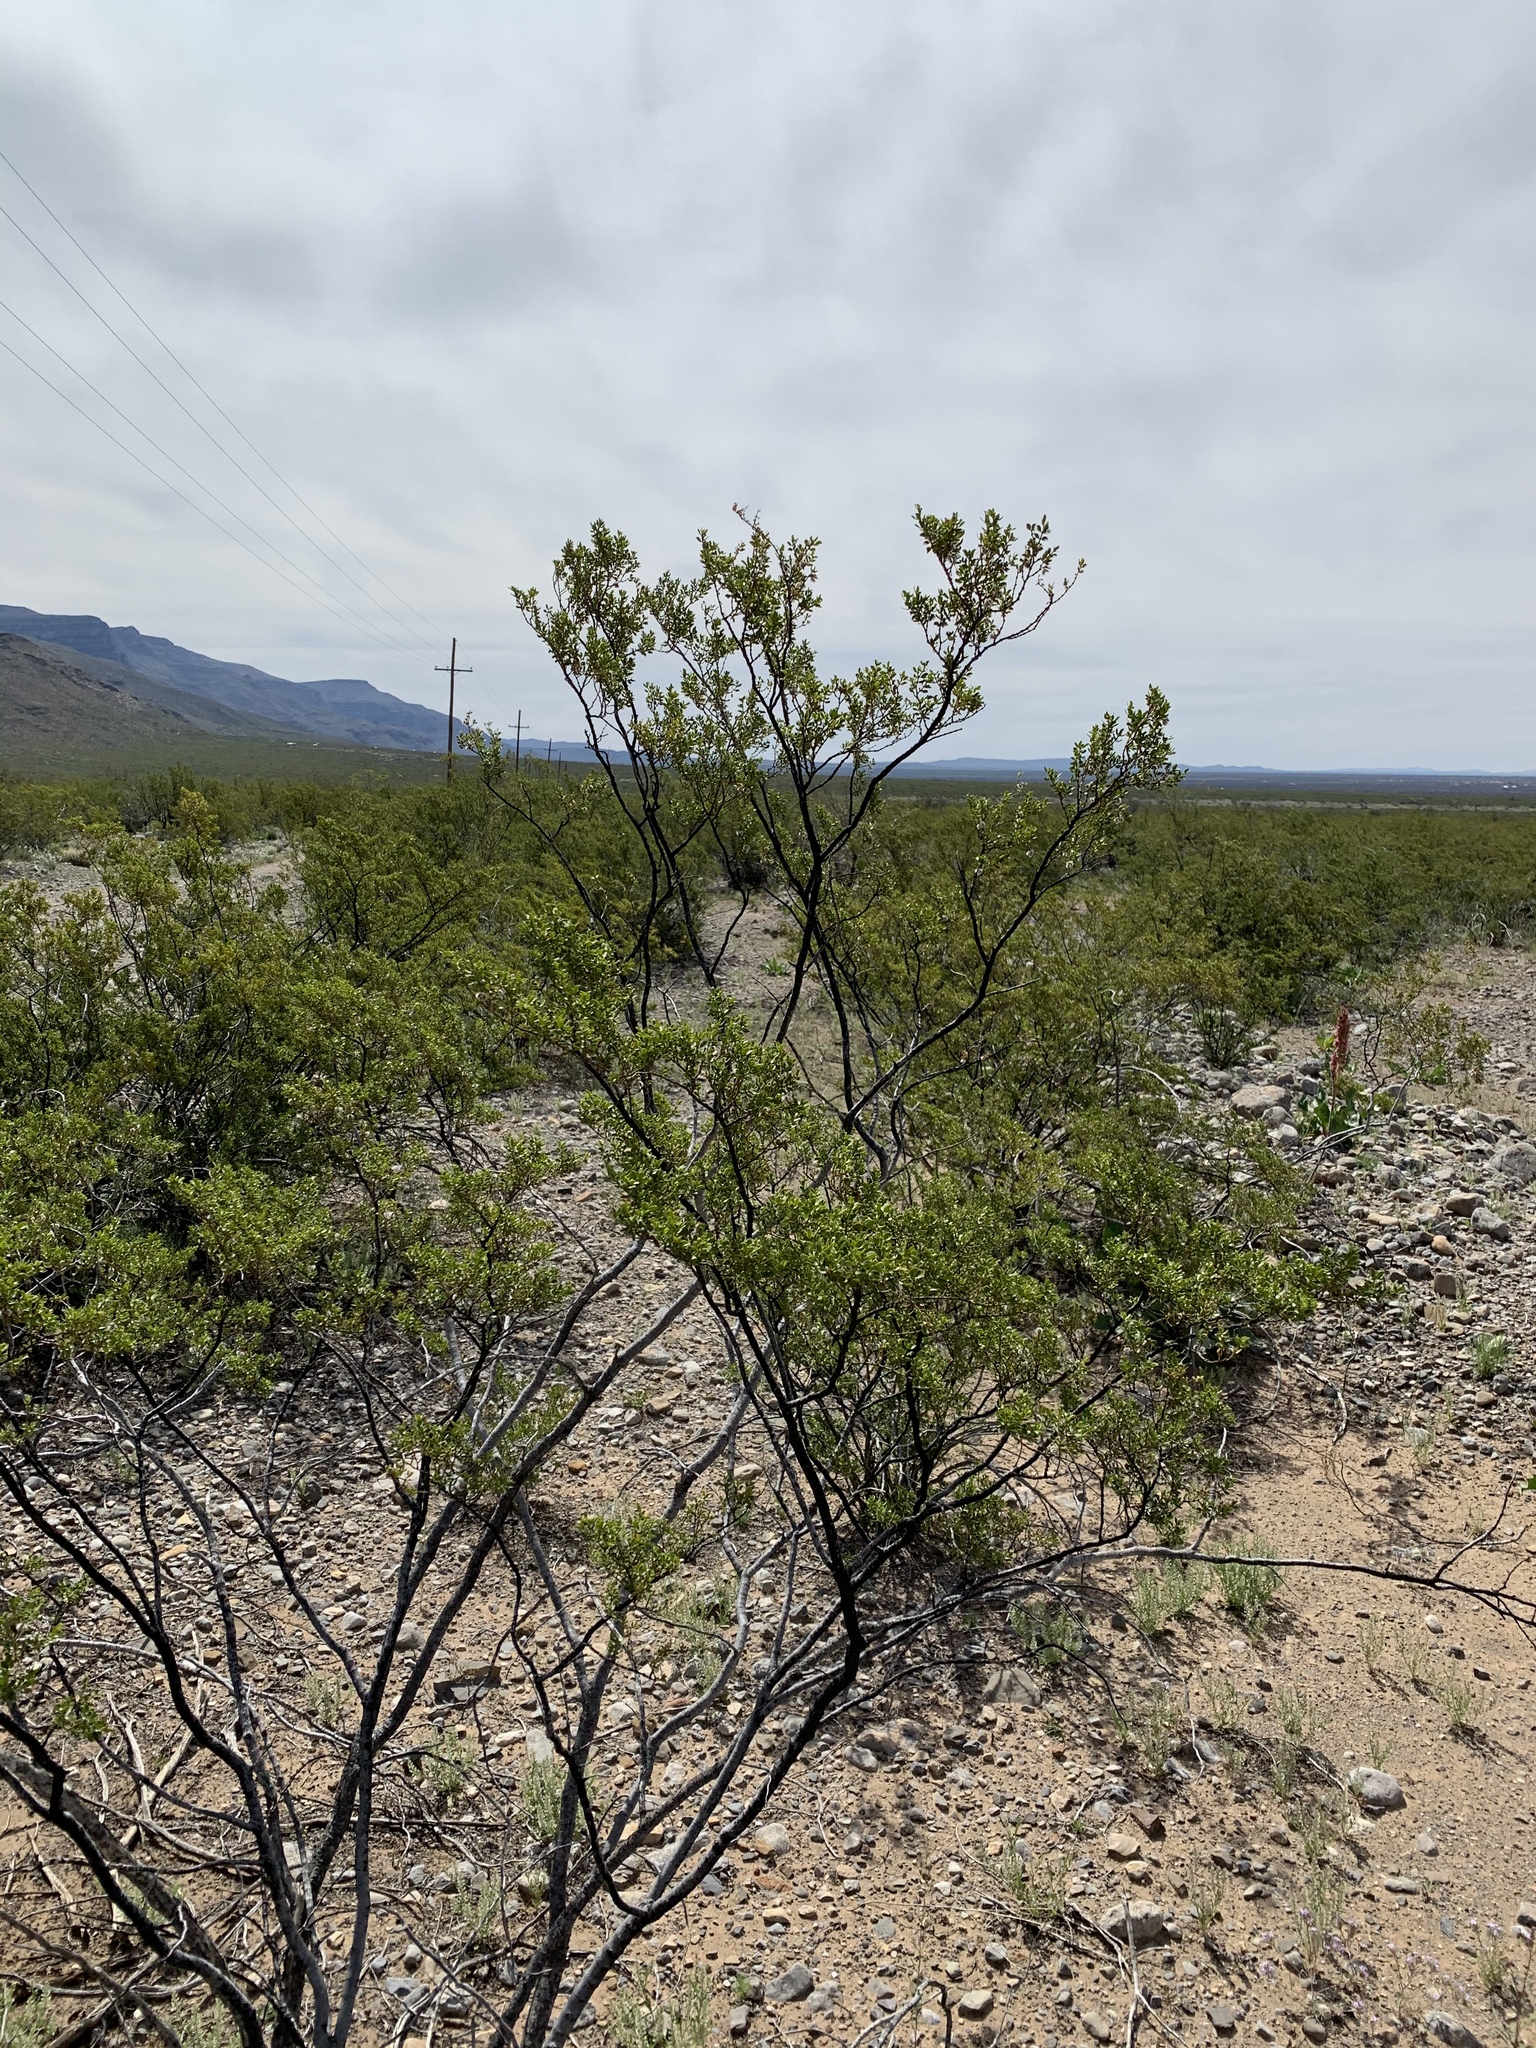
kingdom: Plantae
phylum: Tracheophyta
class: Magnoliopsida
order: Zygophyllales
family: Zygophyllaceae
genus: Larrea
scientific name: Larrea tridentata
